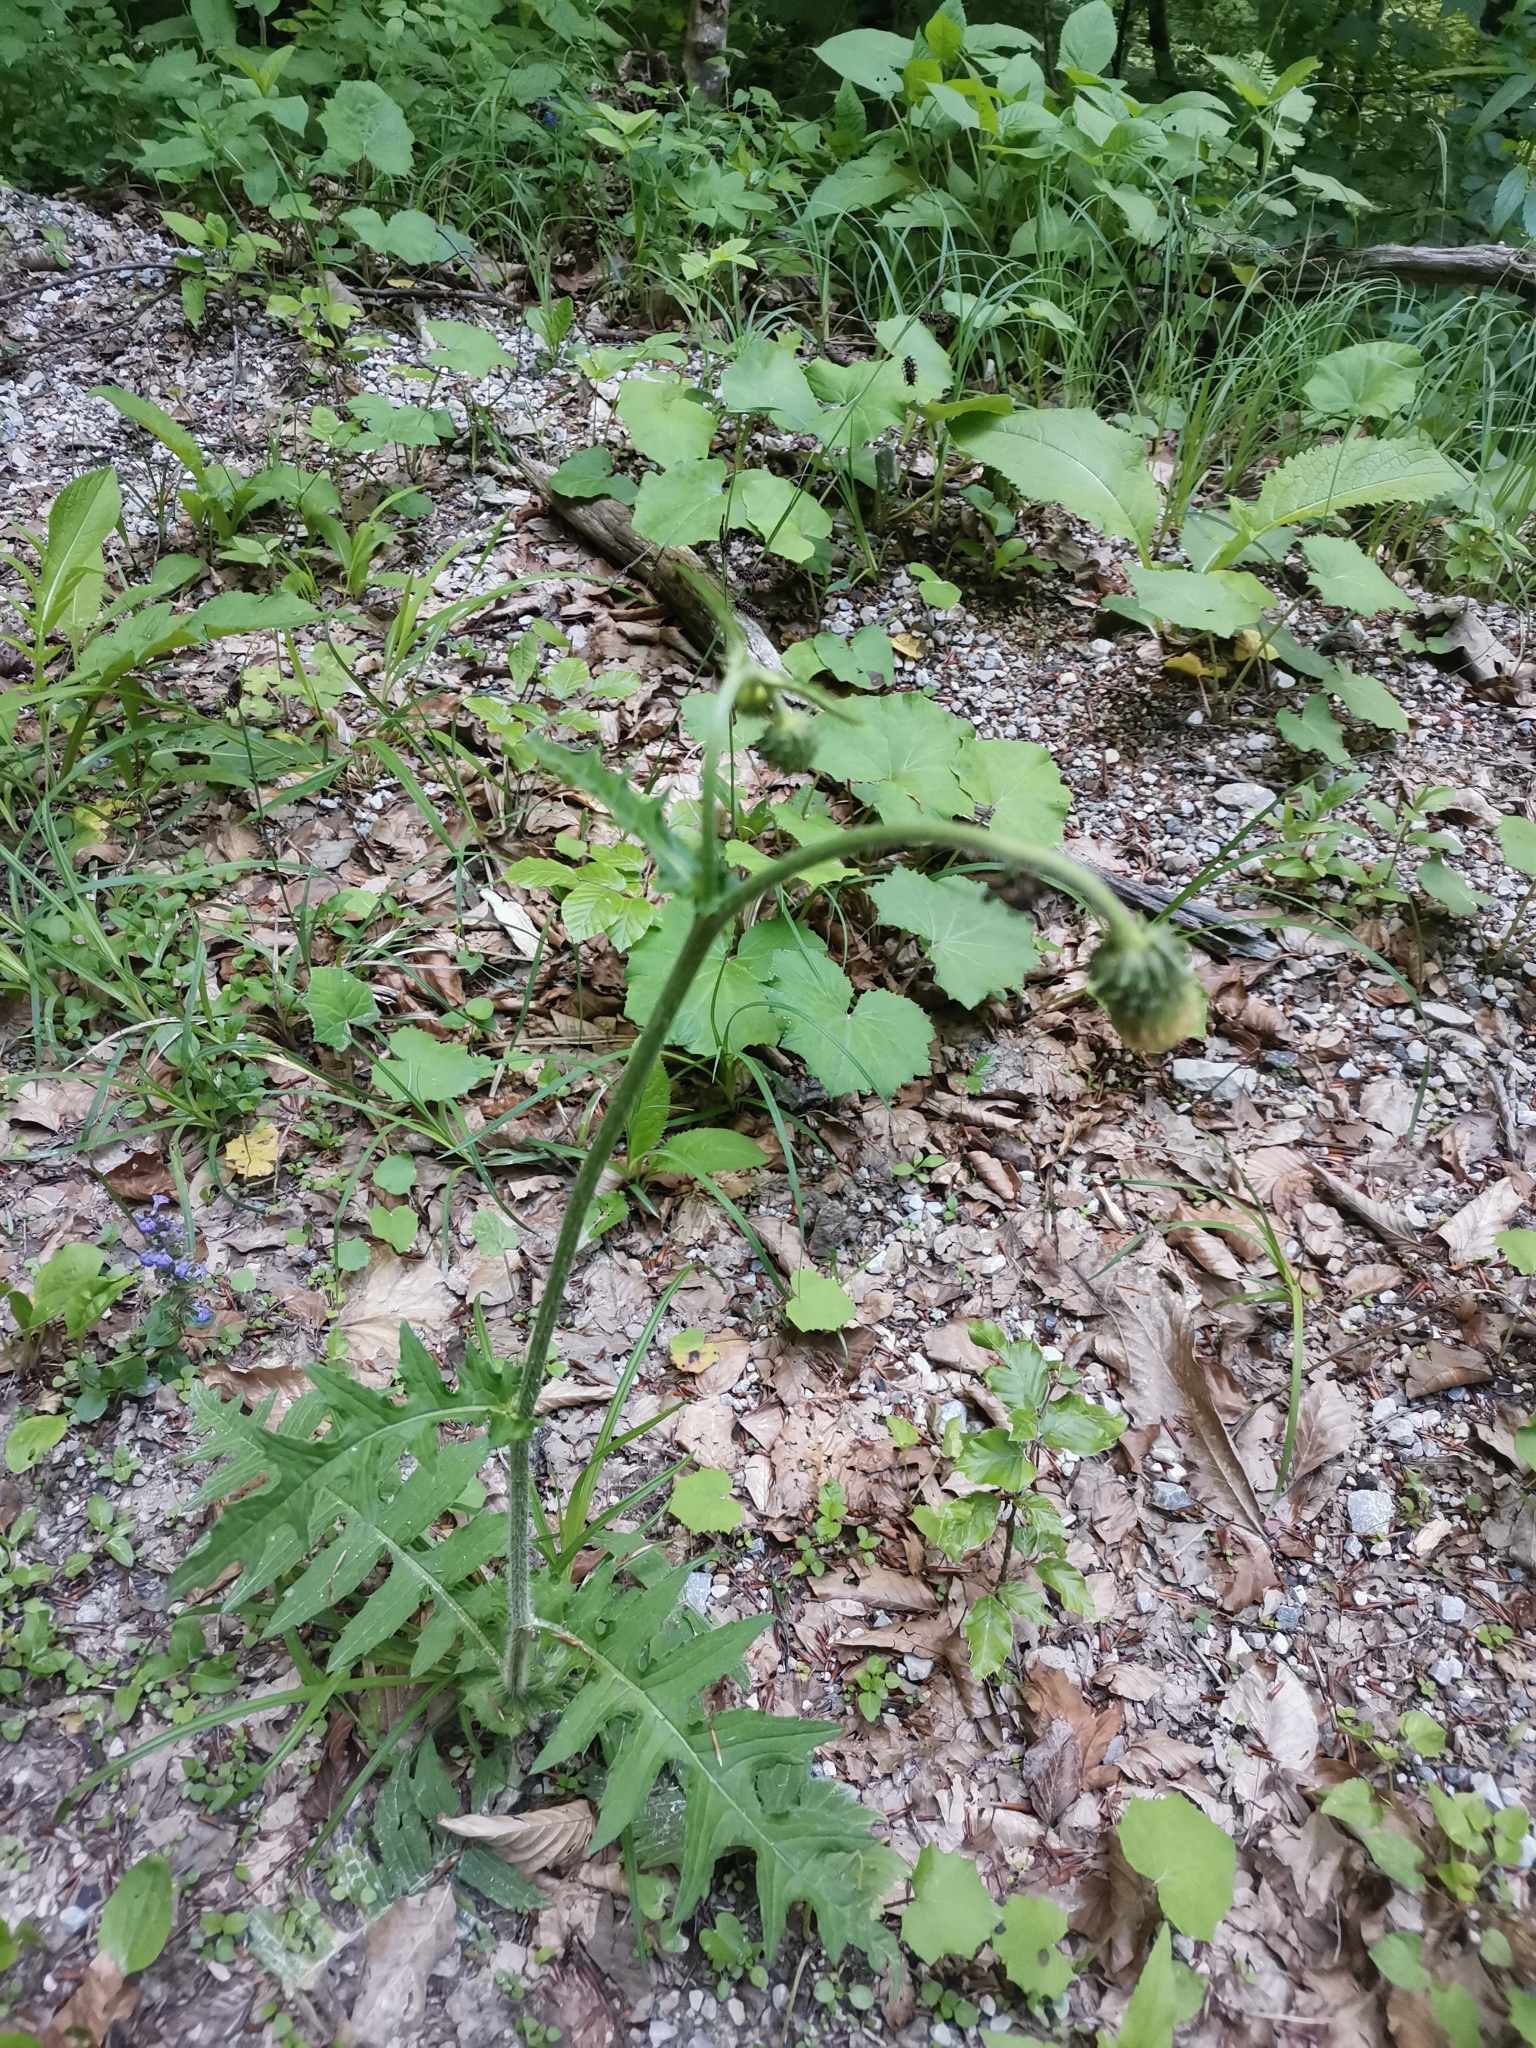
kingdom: Plantae
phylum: Tracheophyta
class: Magnoliopsida
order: Asterales
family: Asteraceae
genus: Cirsium
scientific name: Cirsium erisithales
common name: Yellow thistle
